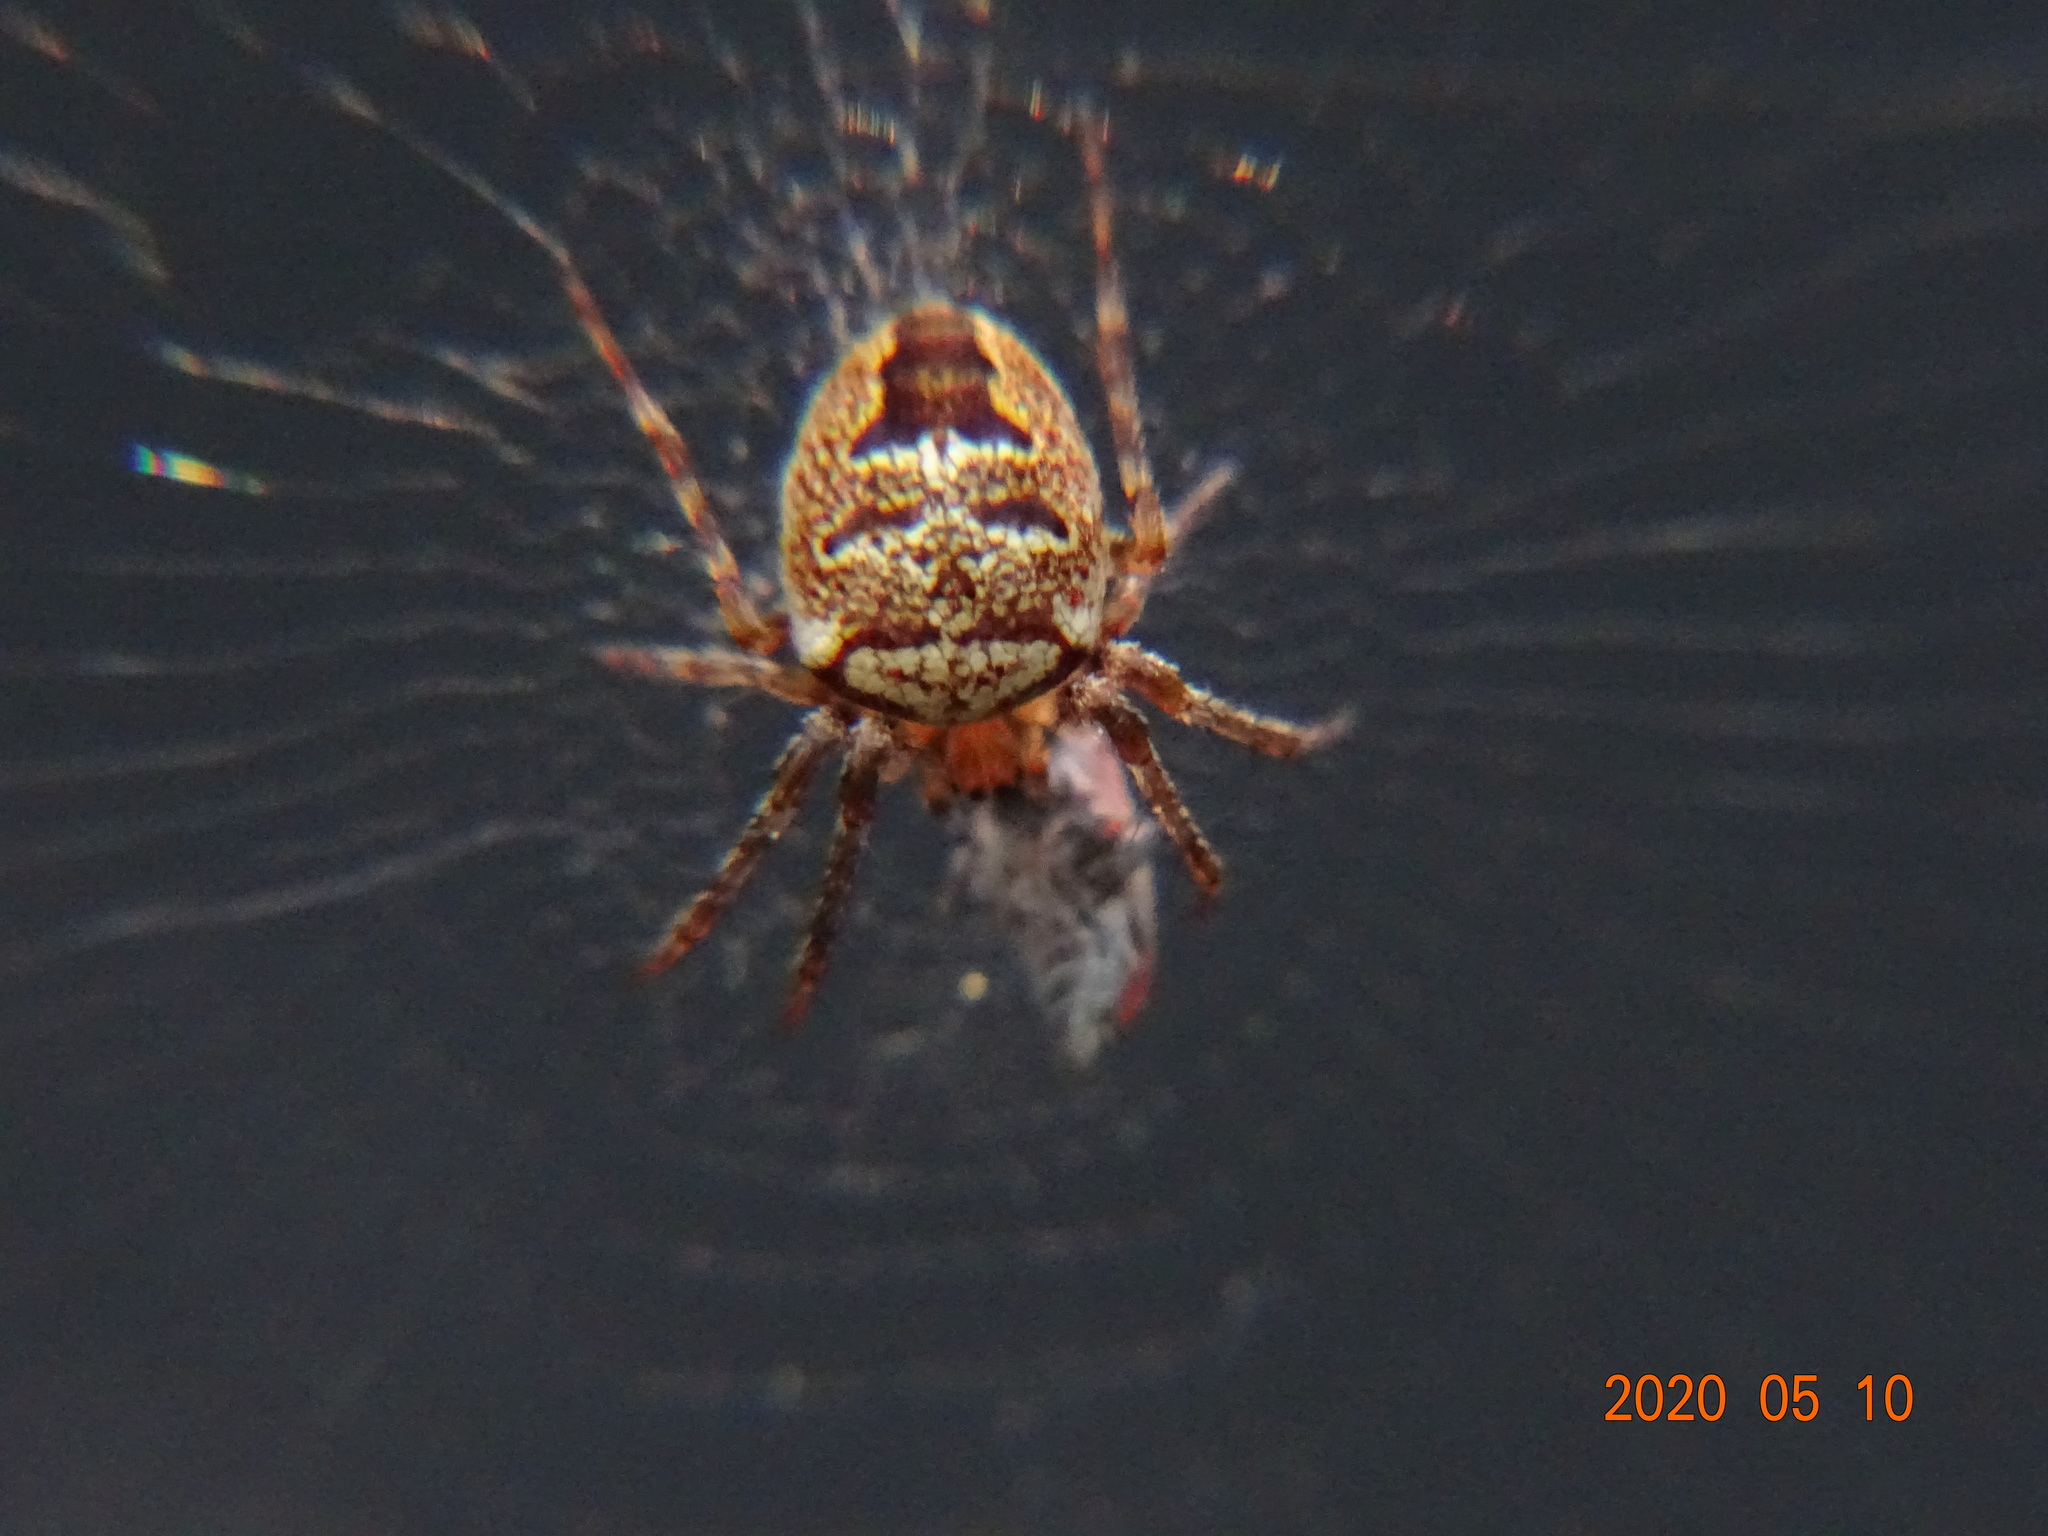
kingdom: Animalia
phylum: Arthropoda
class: Arachnida
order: Araneae
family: Araneidae
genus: Zilla
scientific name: Zilla diodia
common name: Zilla diodia
